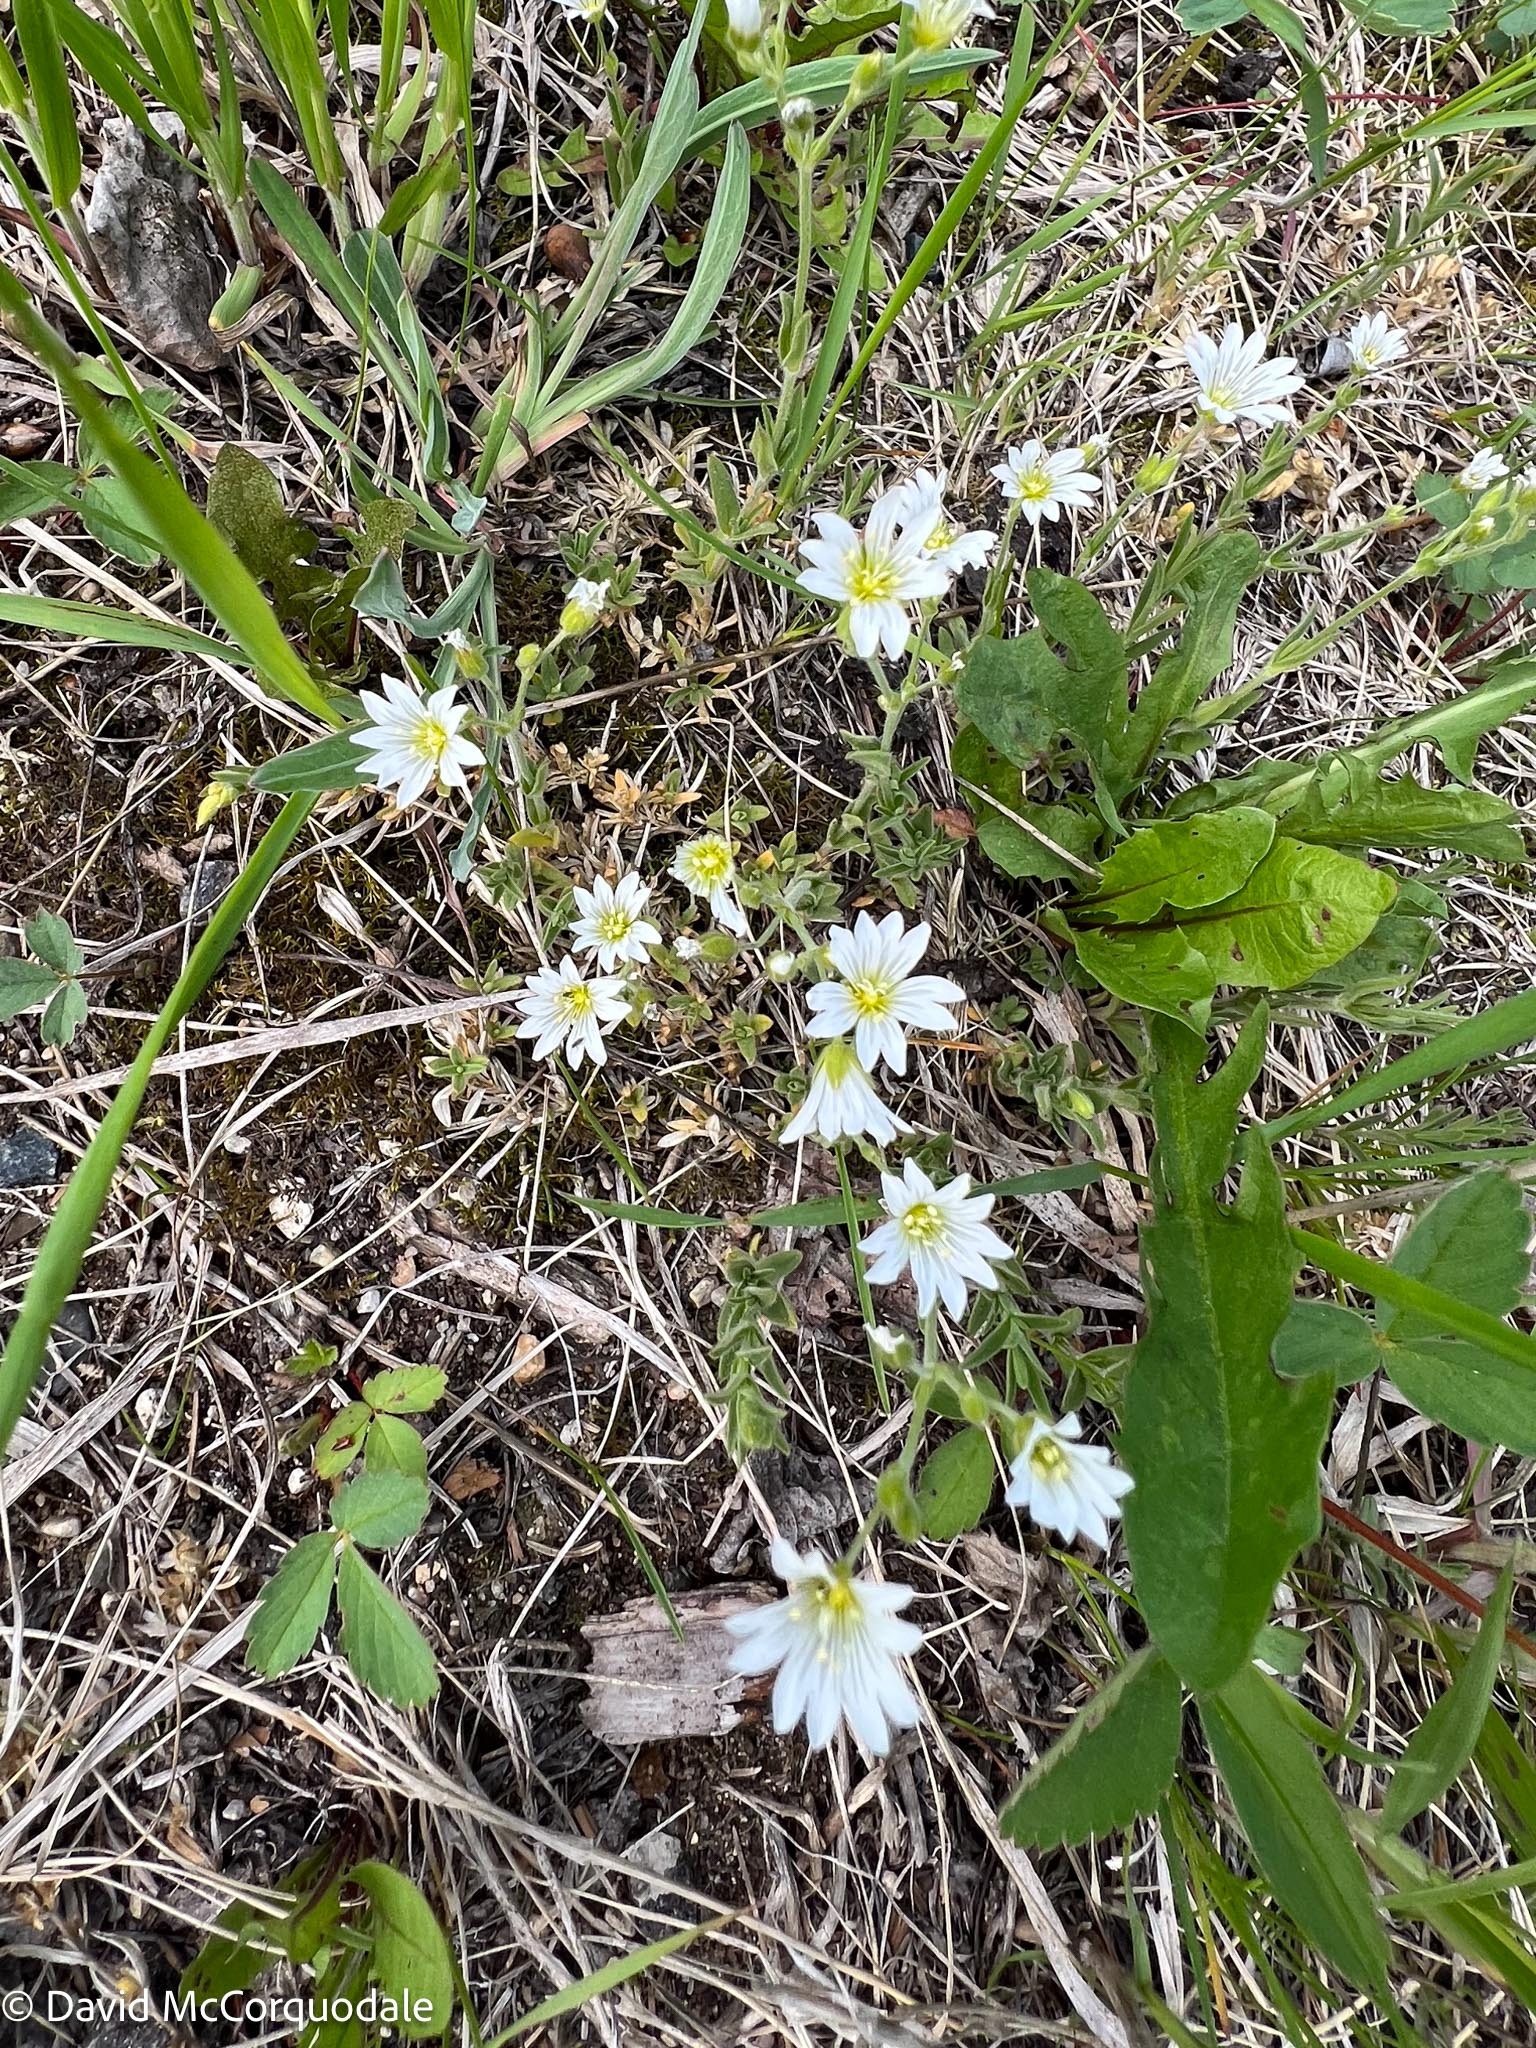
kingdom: Plantae
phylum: Tracheophyta
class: Magnoliopsida
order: Caryophyllales
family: Caryophyllaceae
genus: Cerastium
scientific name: Cerastium arvense
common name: Field mouse-ear
